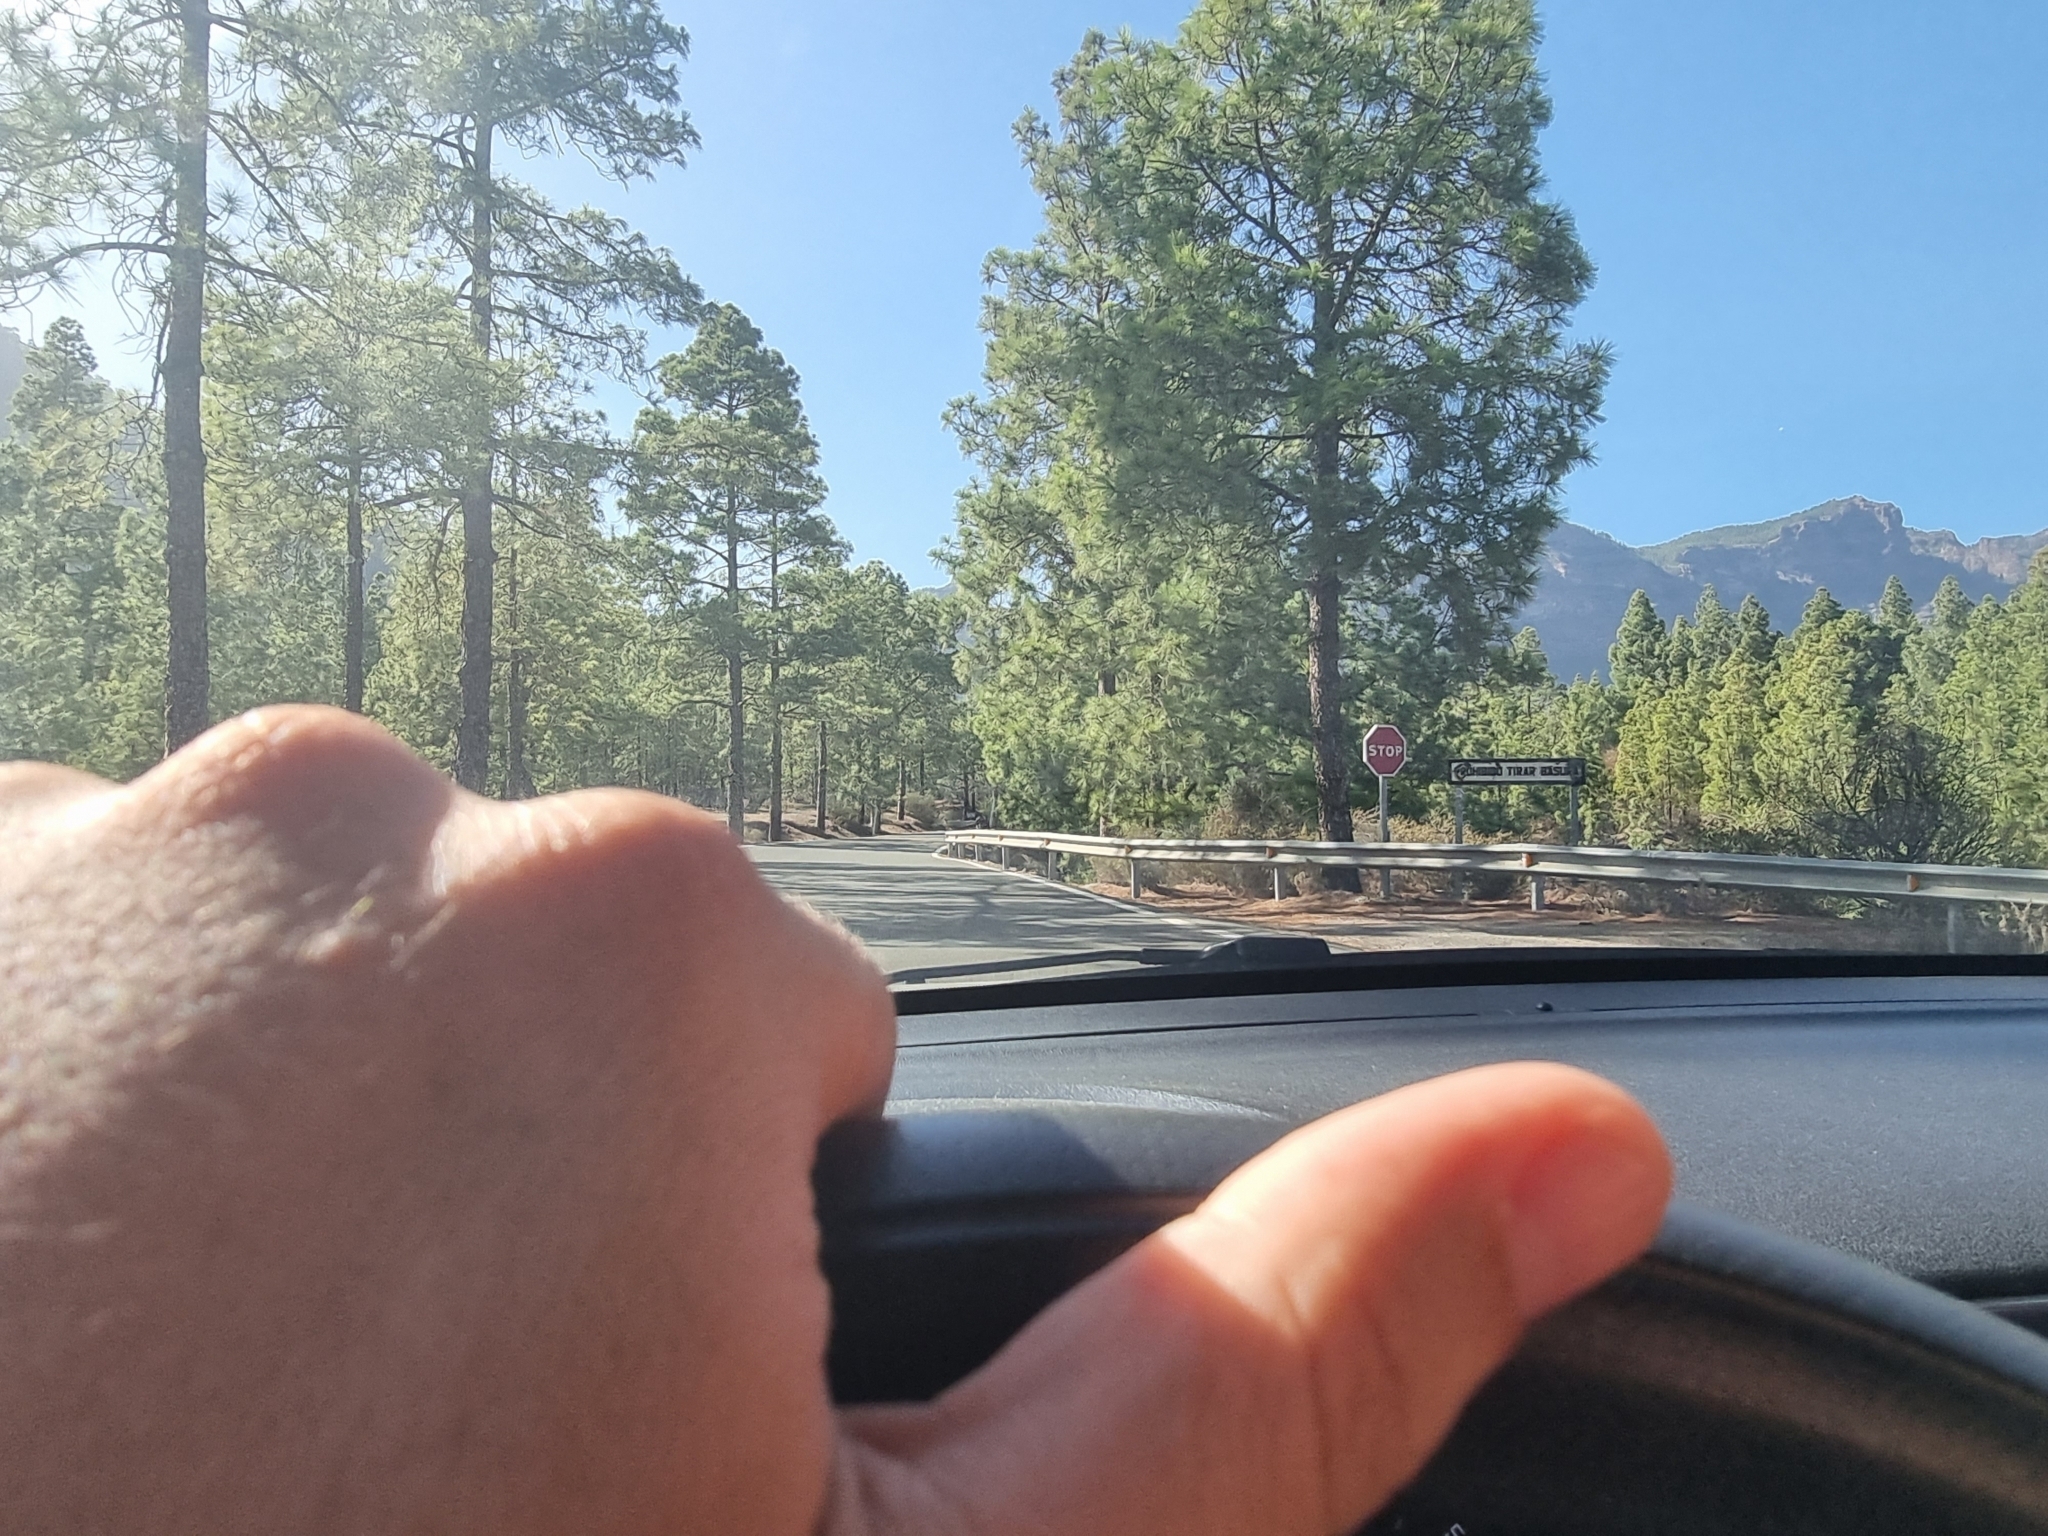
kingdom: Plantae
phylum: Tracheophyta
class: Pinopsida
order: Pinales
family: Pinaceae
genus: Pinus
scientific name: Pinus canariensis
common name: Canary islands pine
